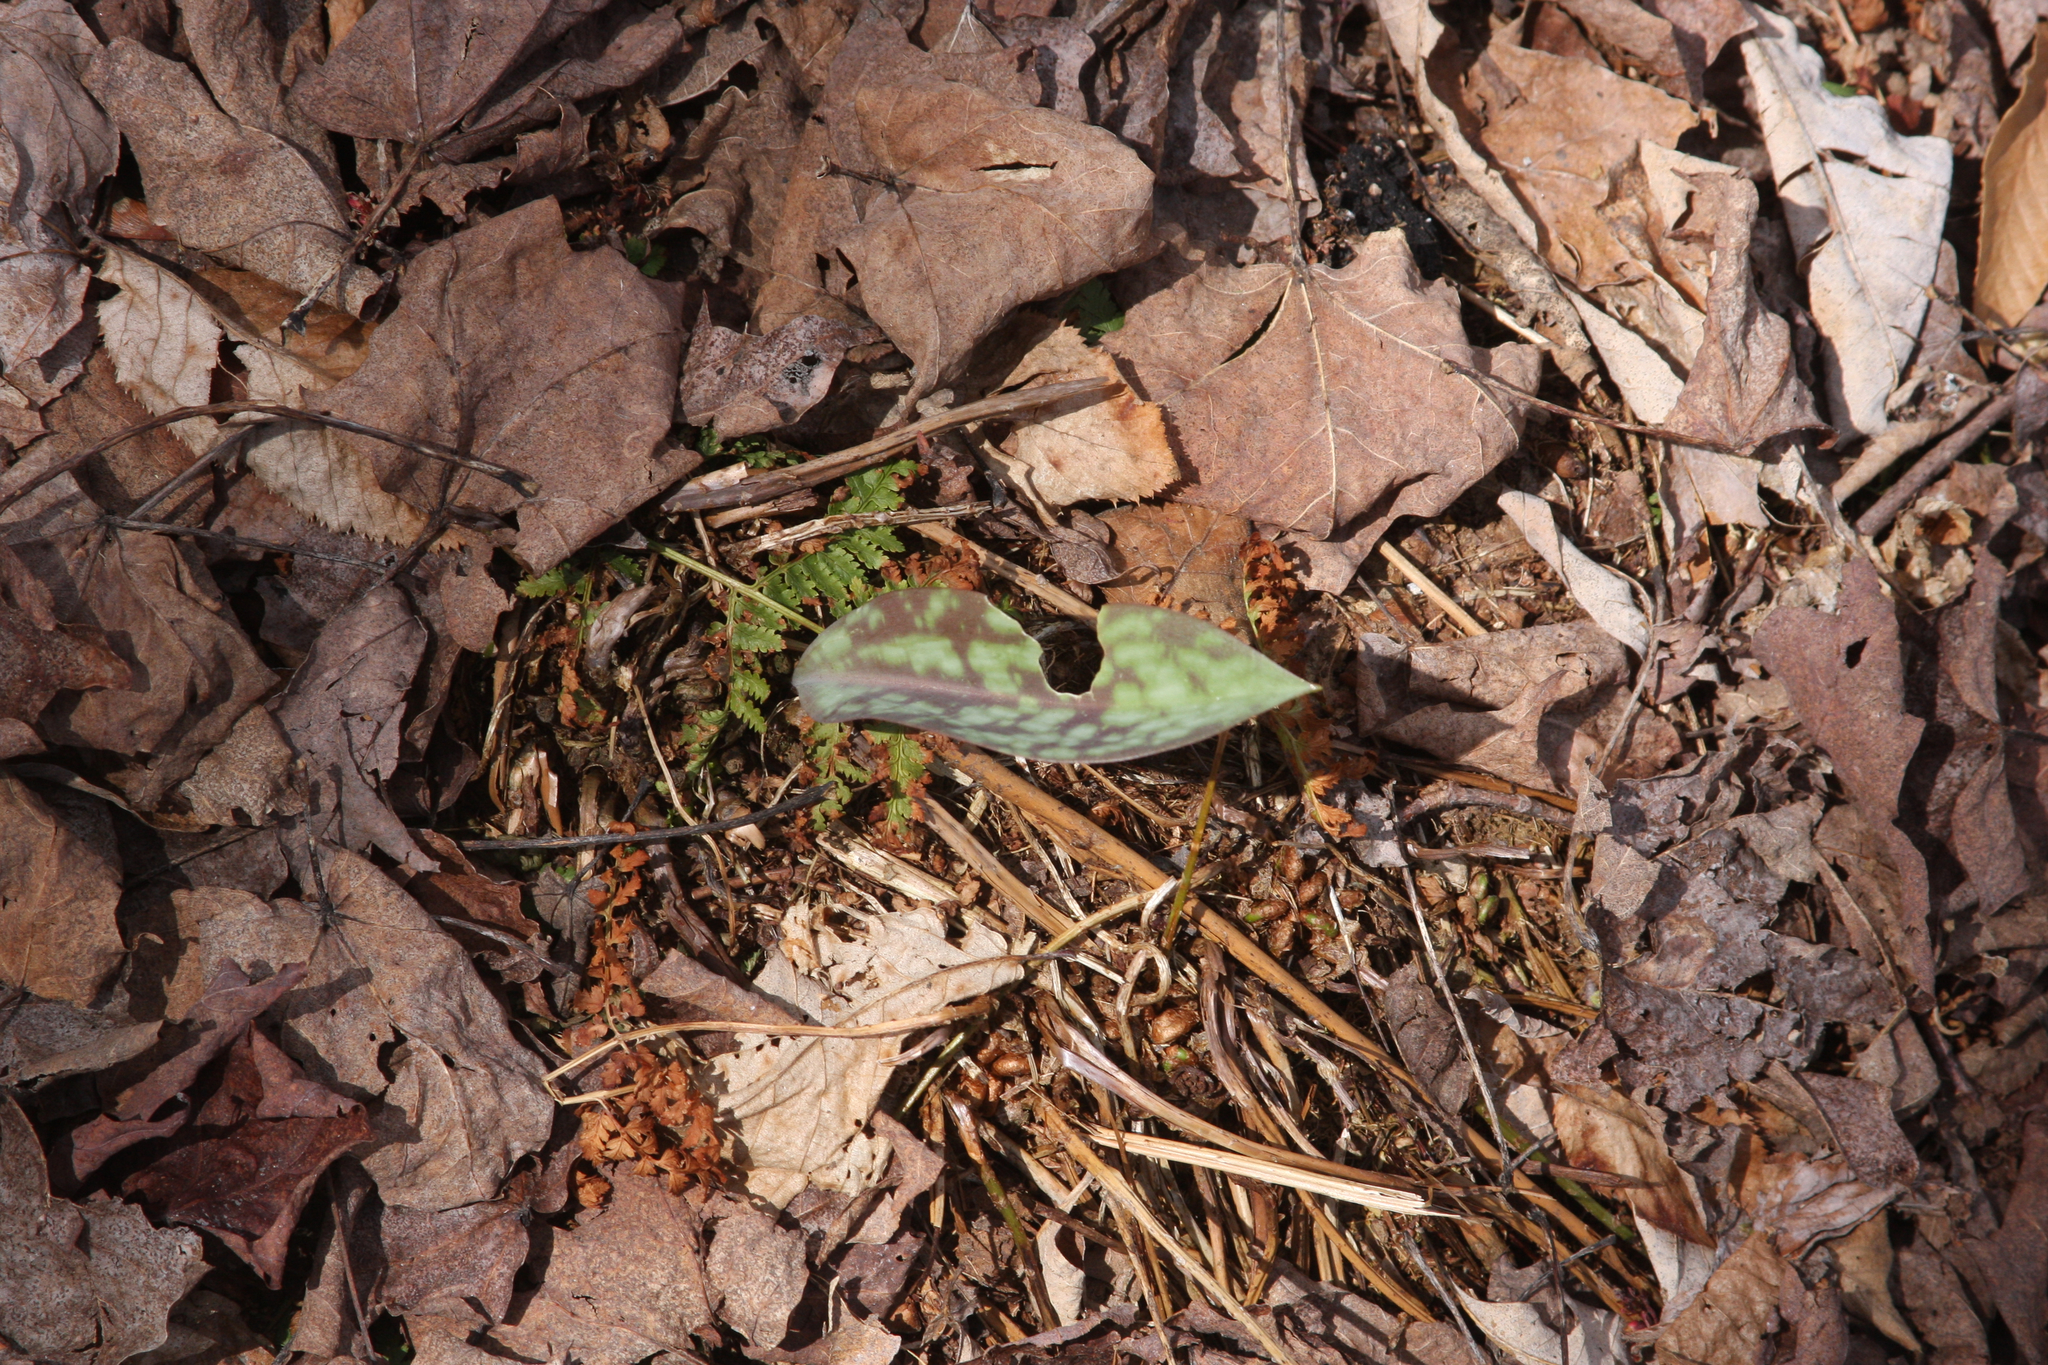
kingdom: Plantae
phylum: Tracheophyta
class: Liliopsida
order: Liliales
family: Liliaceae
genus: Erythronium
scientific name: Erythronium americanum
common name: Yellow adder's-tongue
